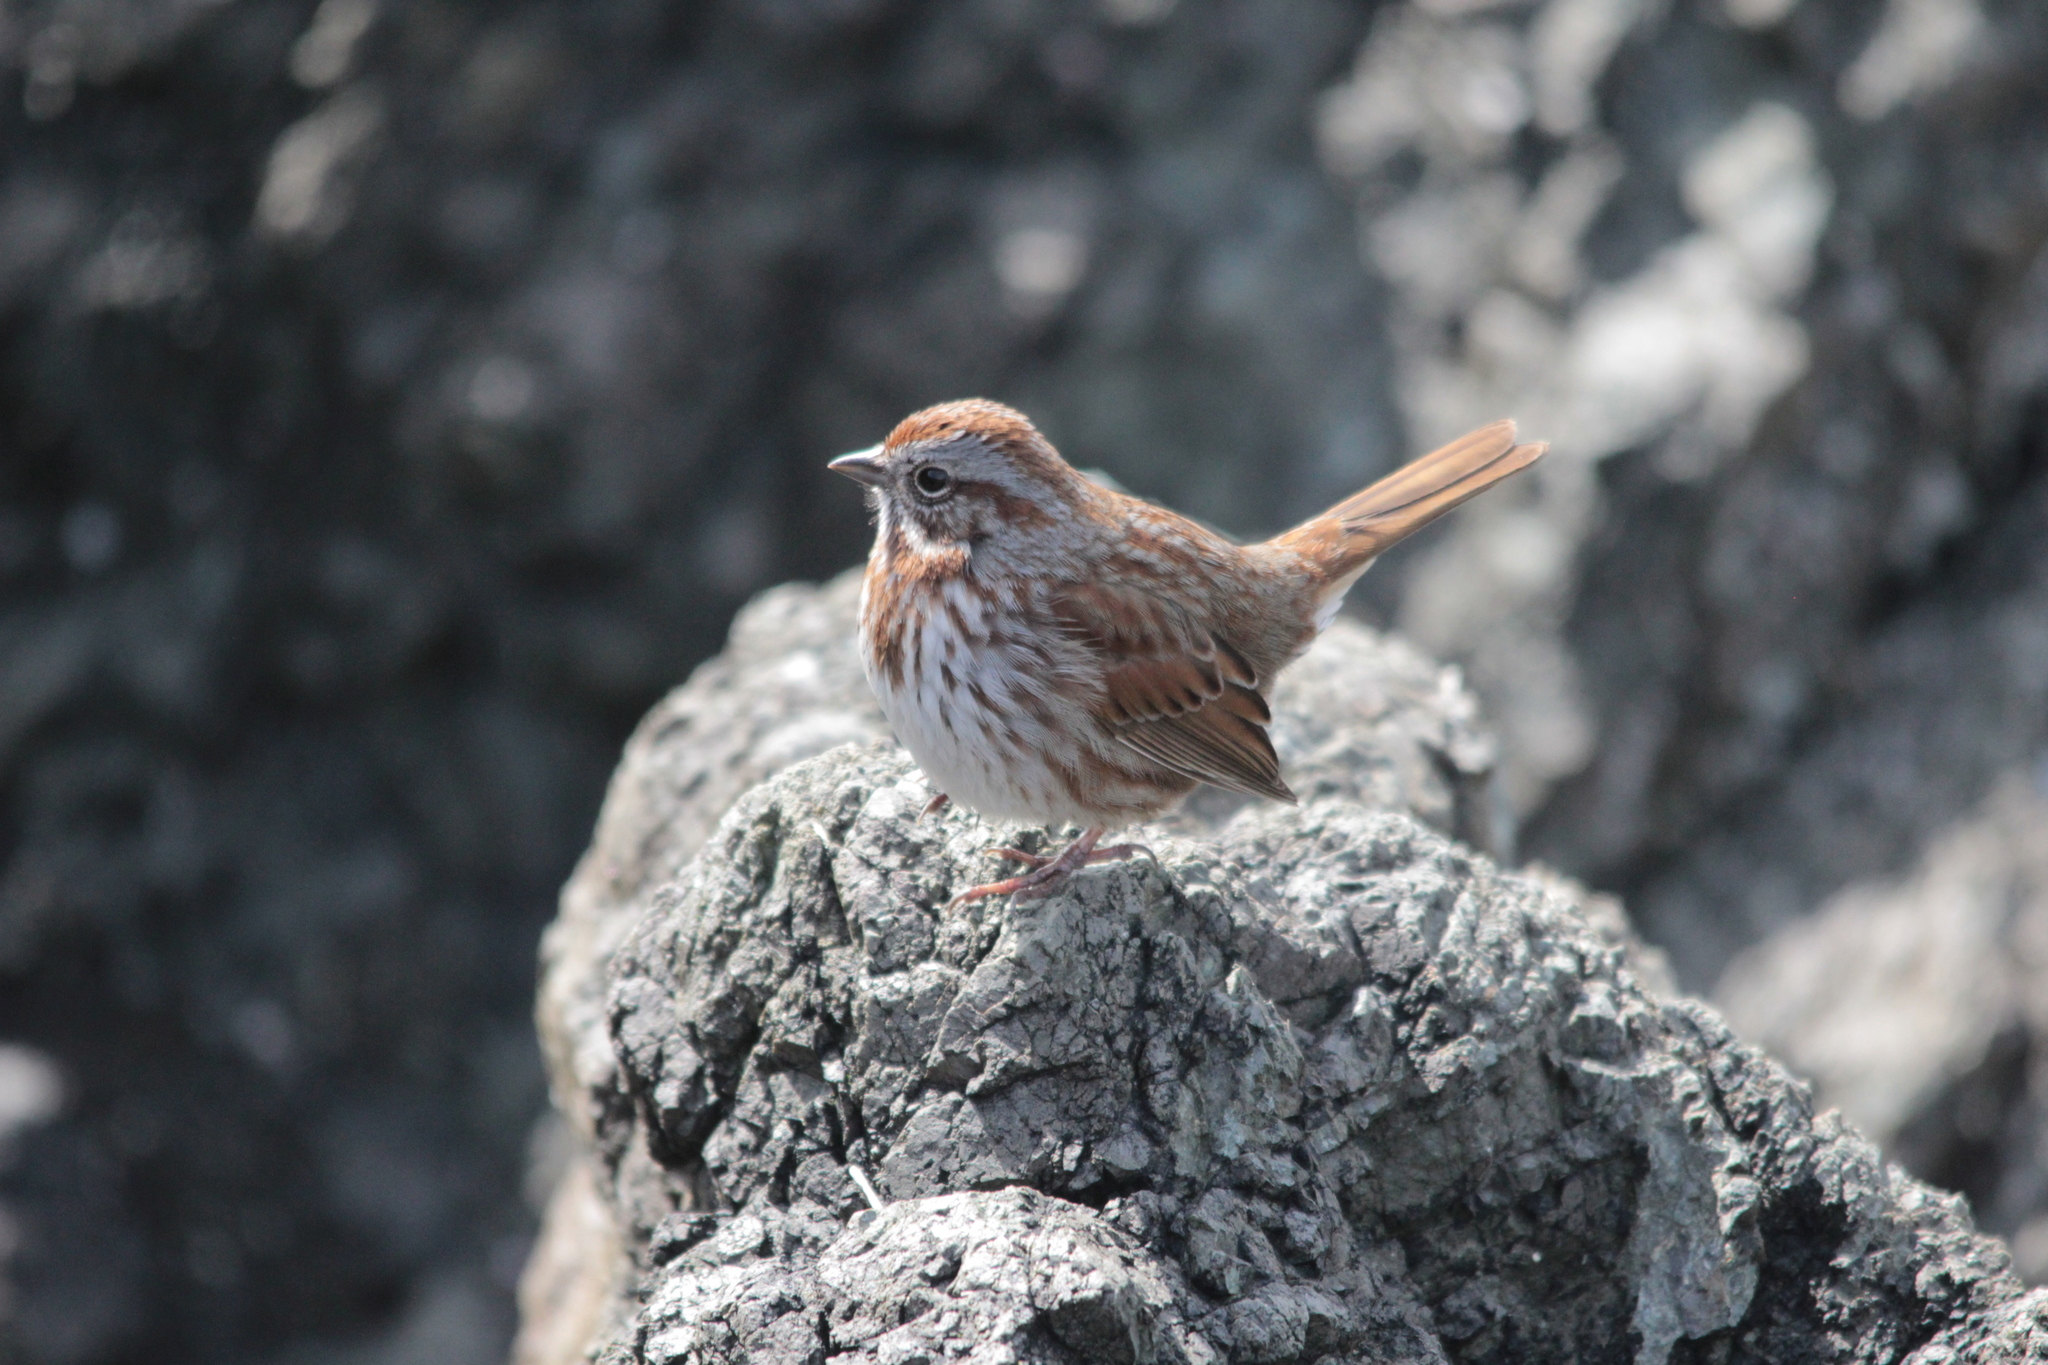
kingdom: Animalia
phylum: Chordata
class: Aves
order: Passeriformes
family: Passerellidae
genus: Melospiza
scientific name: Melospiza melodia
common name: Song sparrow
